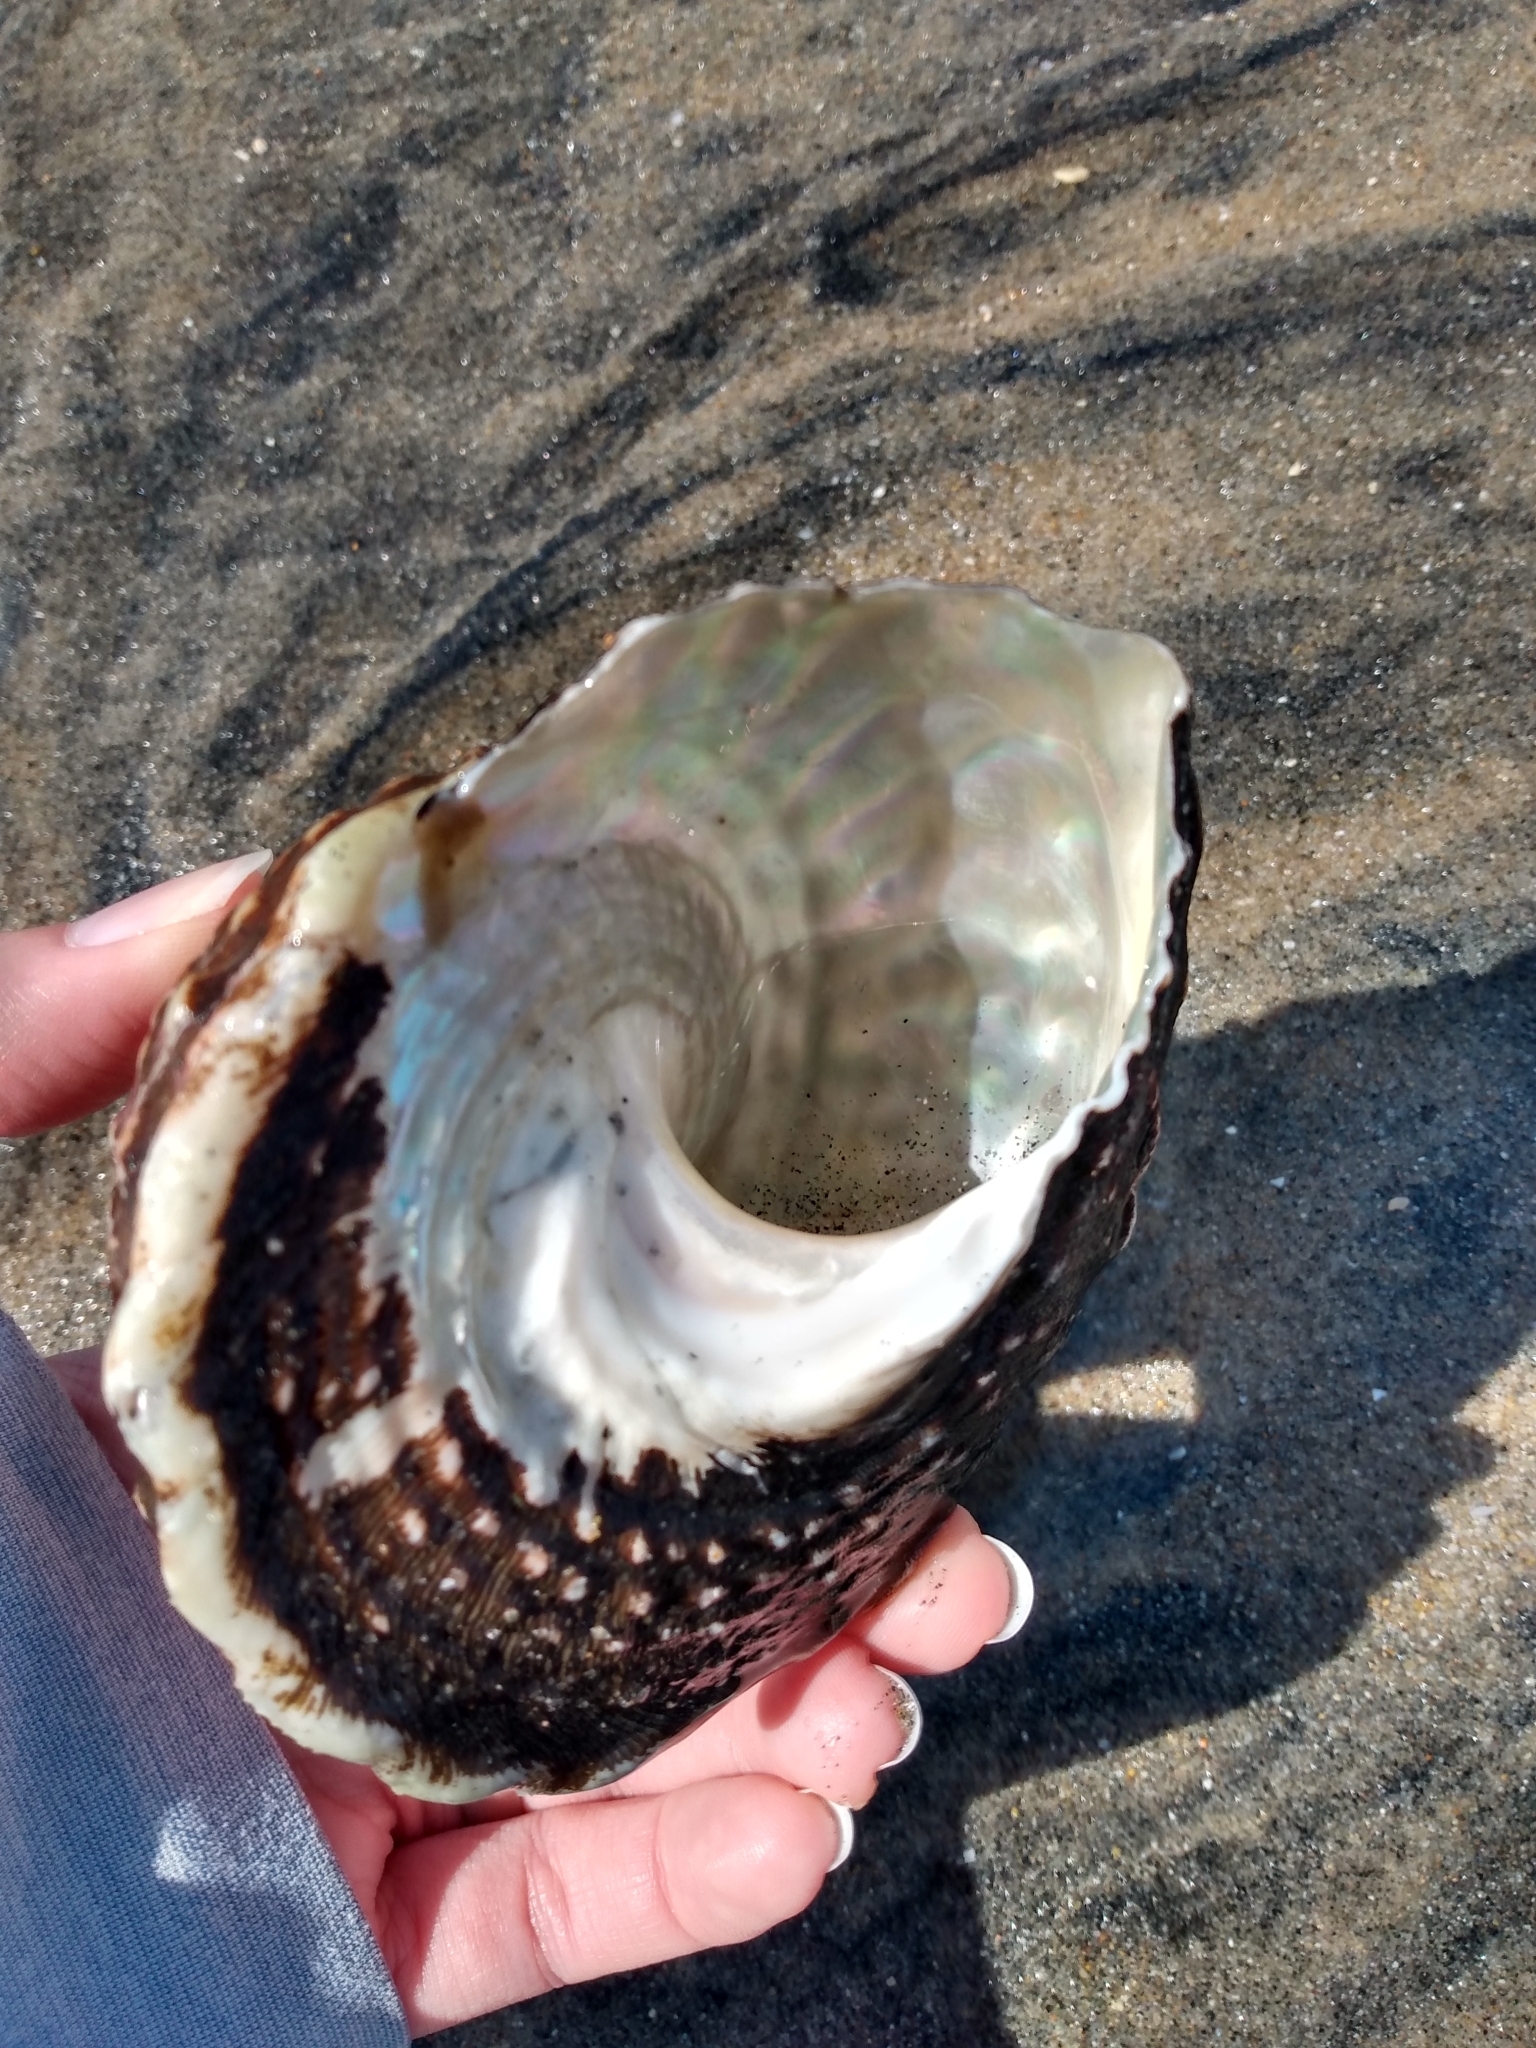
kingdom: Animalia
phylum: Mollusca
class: Gastropoda
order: Trochida
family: Turbinidae
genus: Megastraea
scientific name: Megastraea undosa
